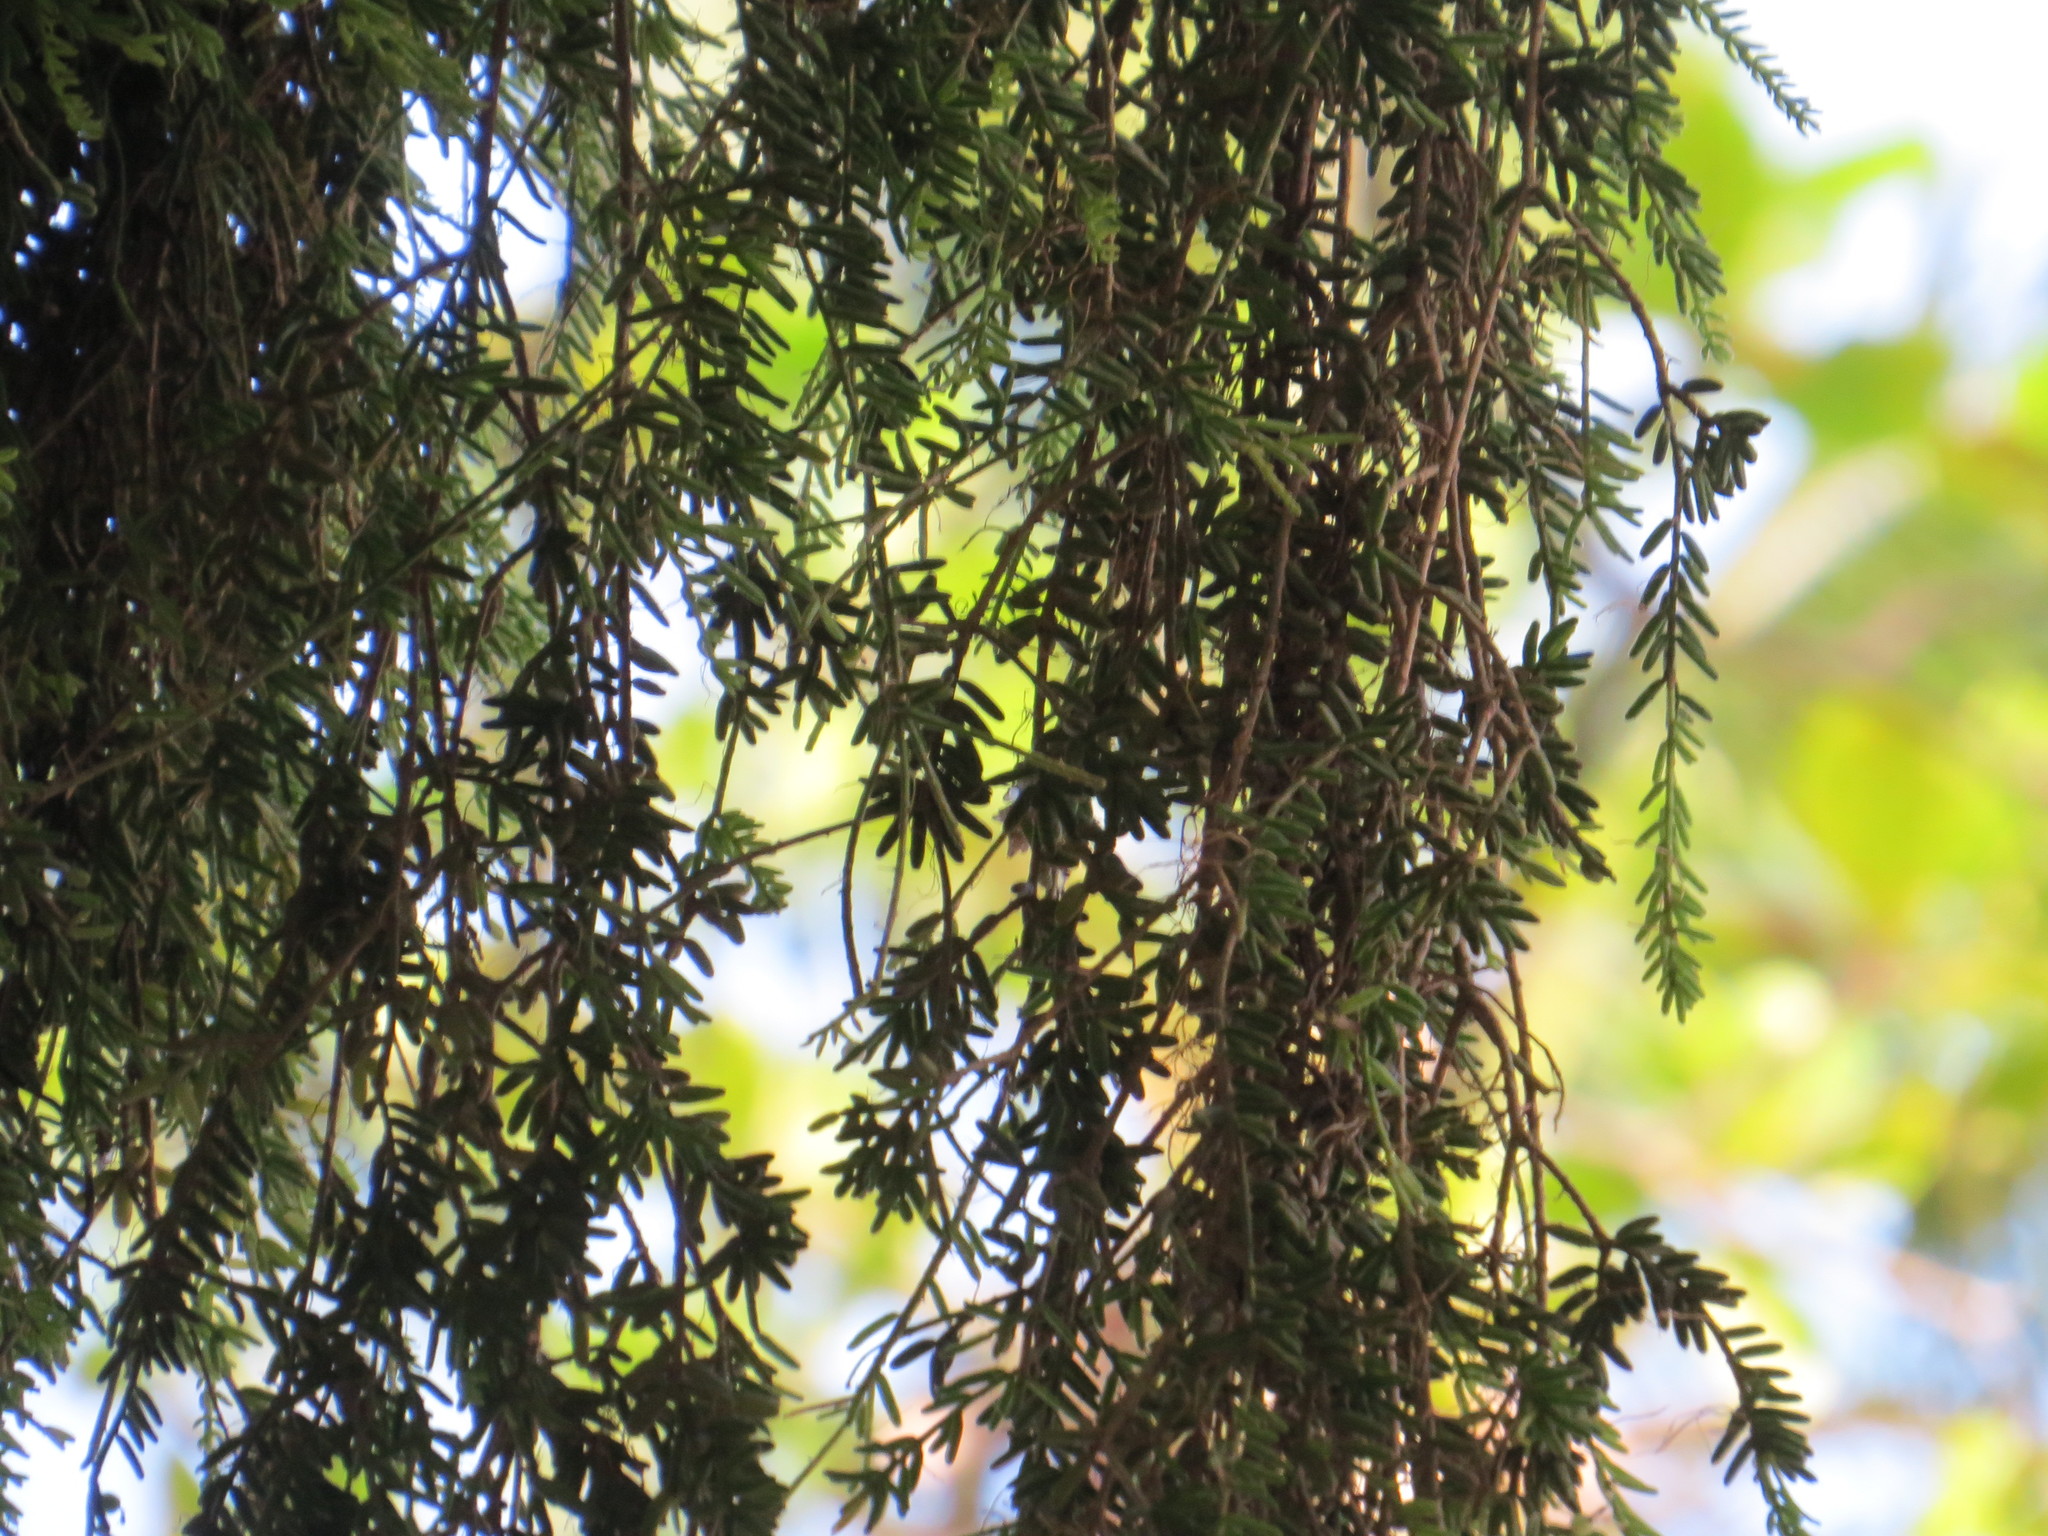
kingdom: Plantae
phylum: Tracheophyta
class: Magnoliopsida
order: Caryophyllales
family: Cactaceae
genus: Rhipsalis
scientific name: Rhipsalis mesembryanthemoides
